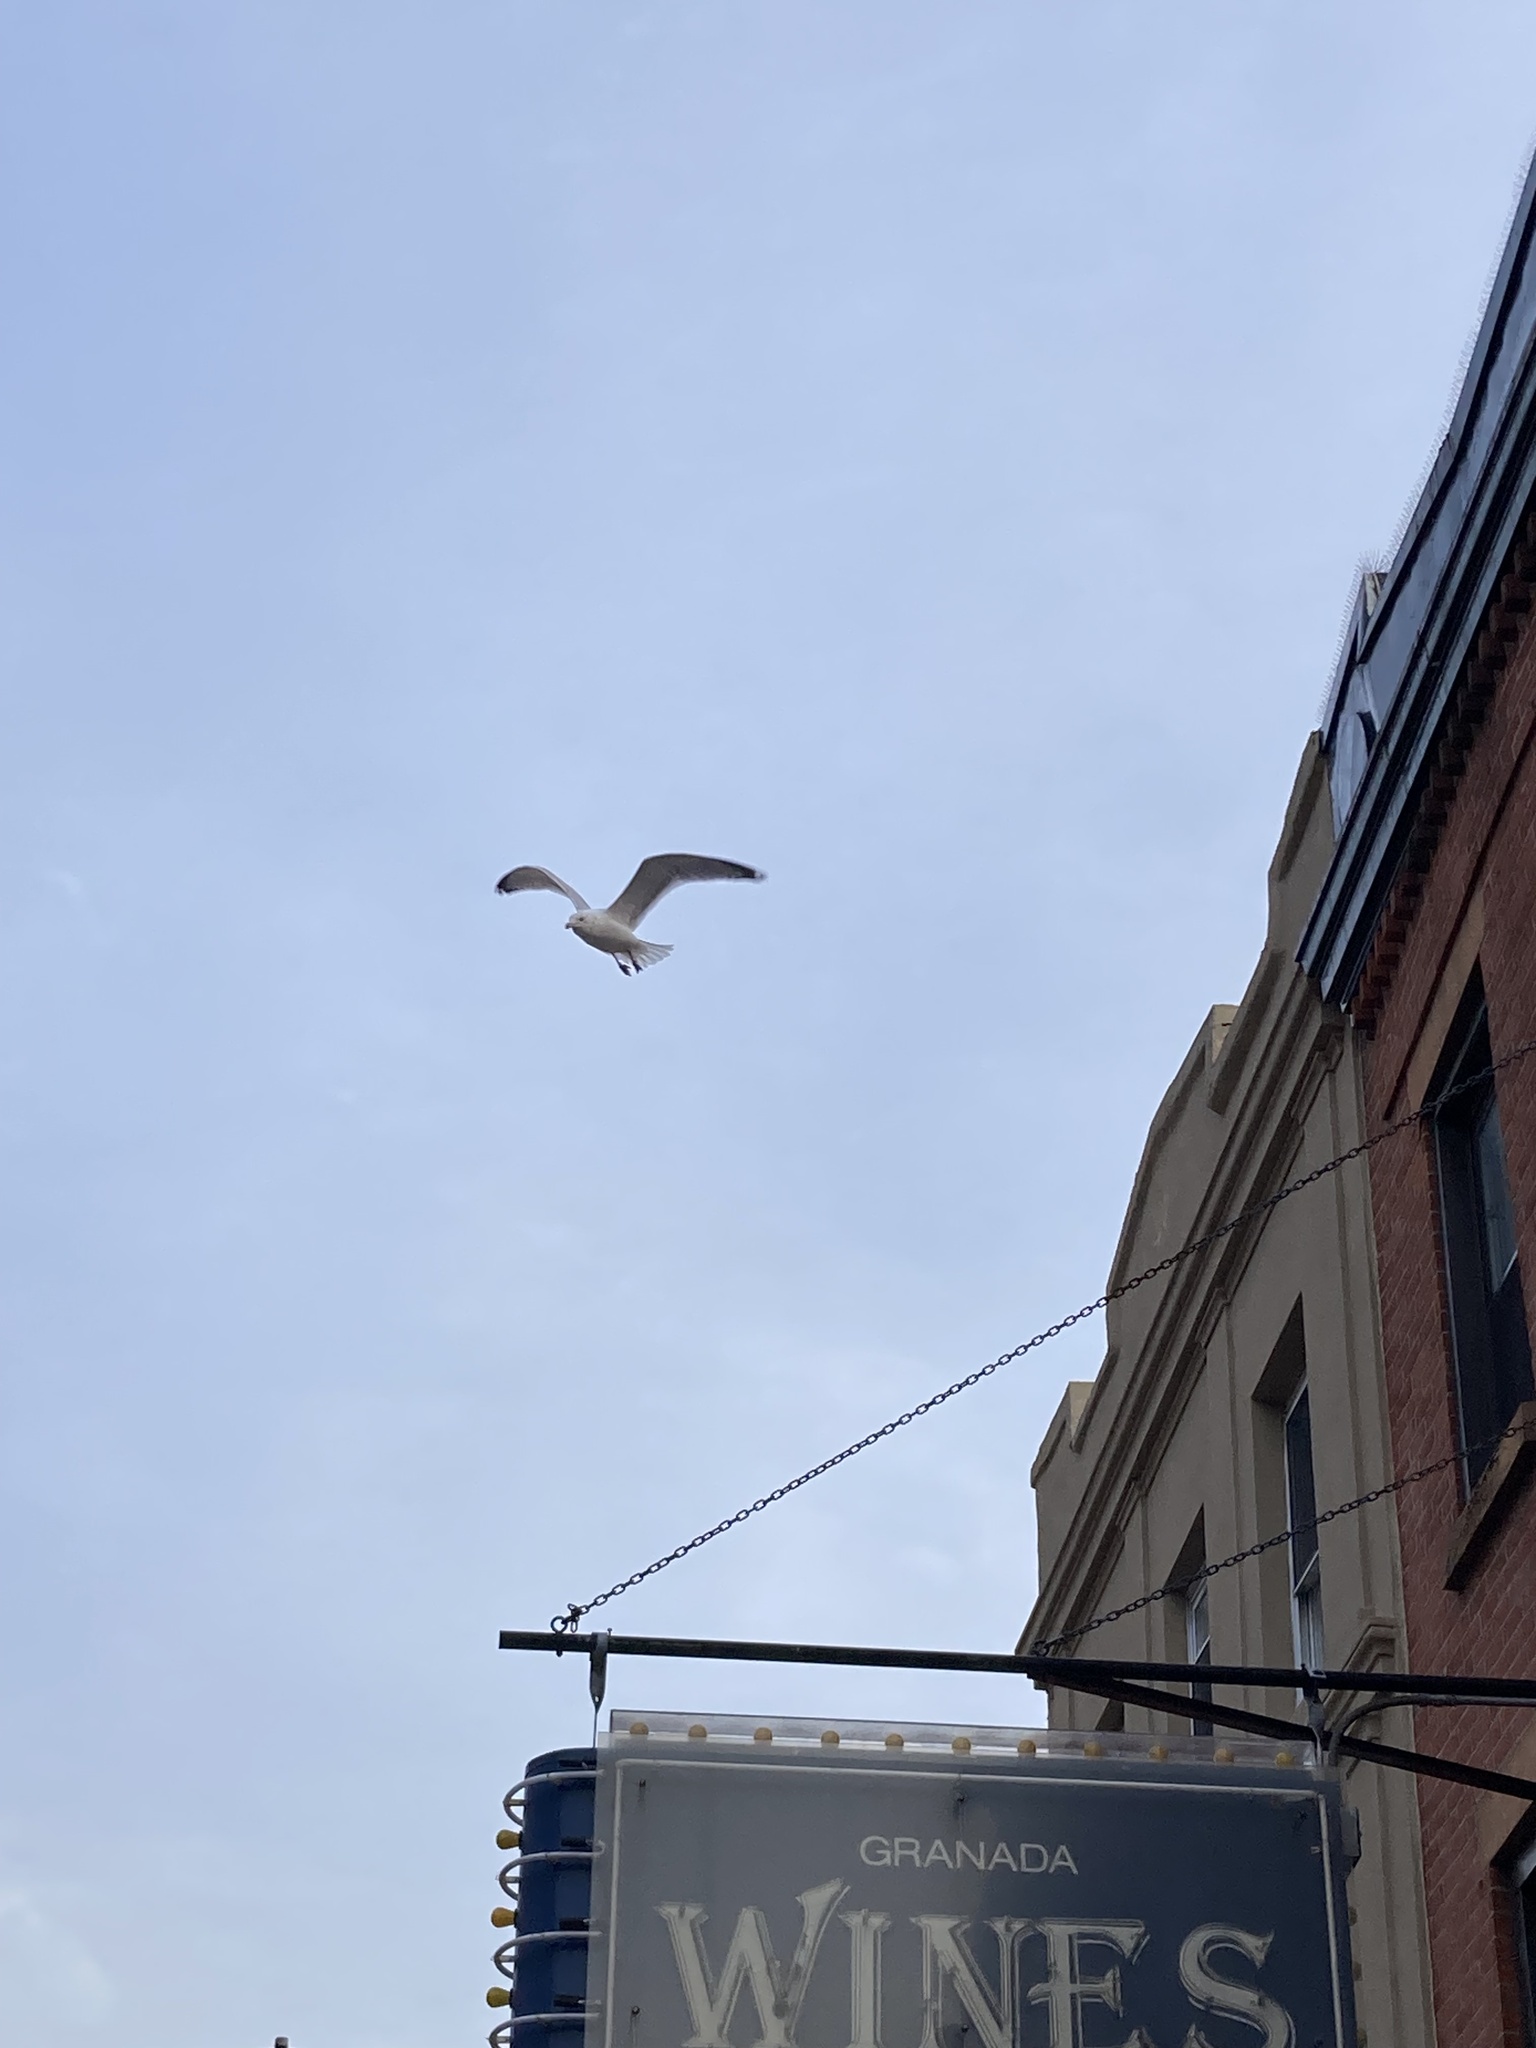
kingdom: Animalia
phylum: Chordata
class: Aves
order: Charadriiformes
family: Laridae
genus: Larus
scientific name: Larus argentatus
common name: Herring gull
